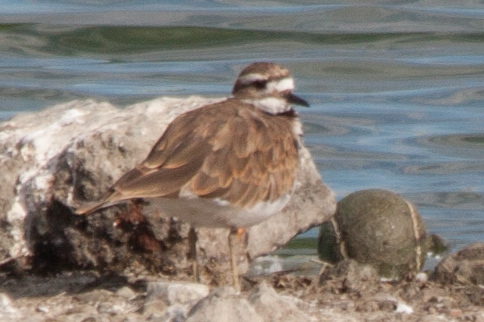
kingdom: Animalia
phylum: Chordata
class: Aves
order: Charadriiformes
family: Charadriidae
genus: Charadrius
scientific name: Charadrius vociferus
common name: Killdeer
